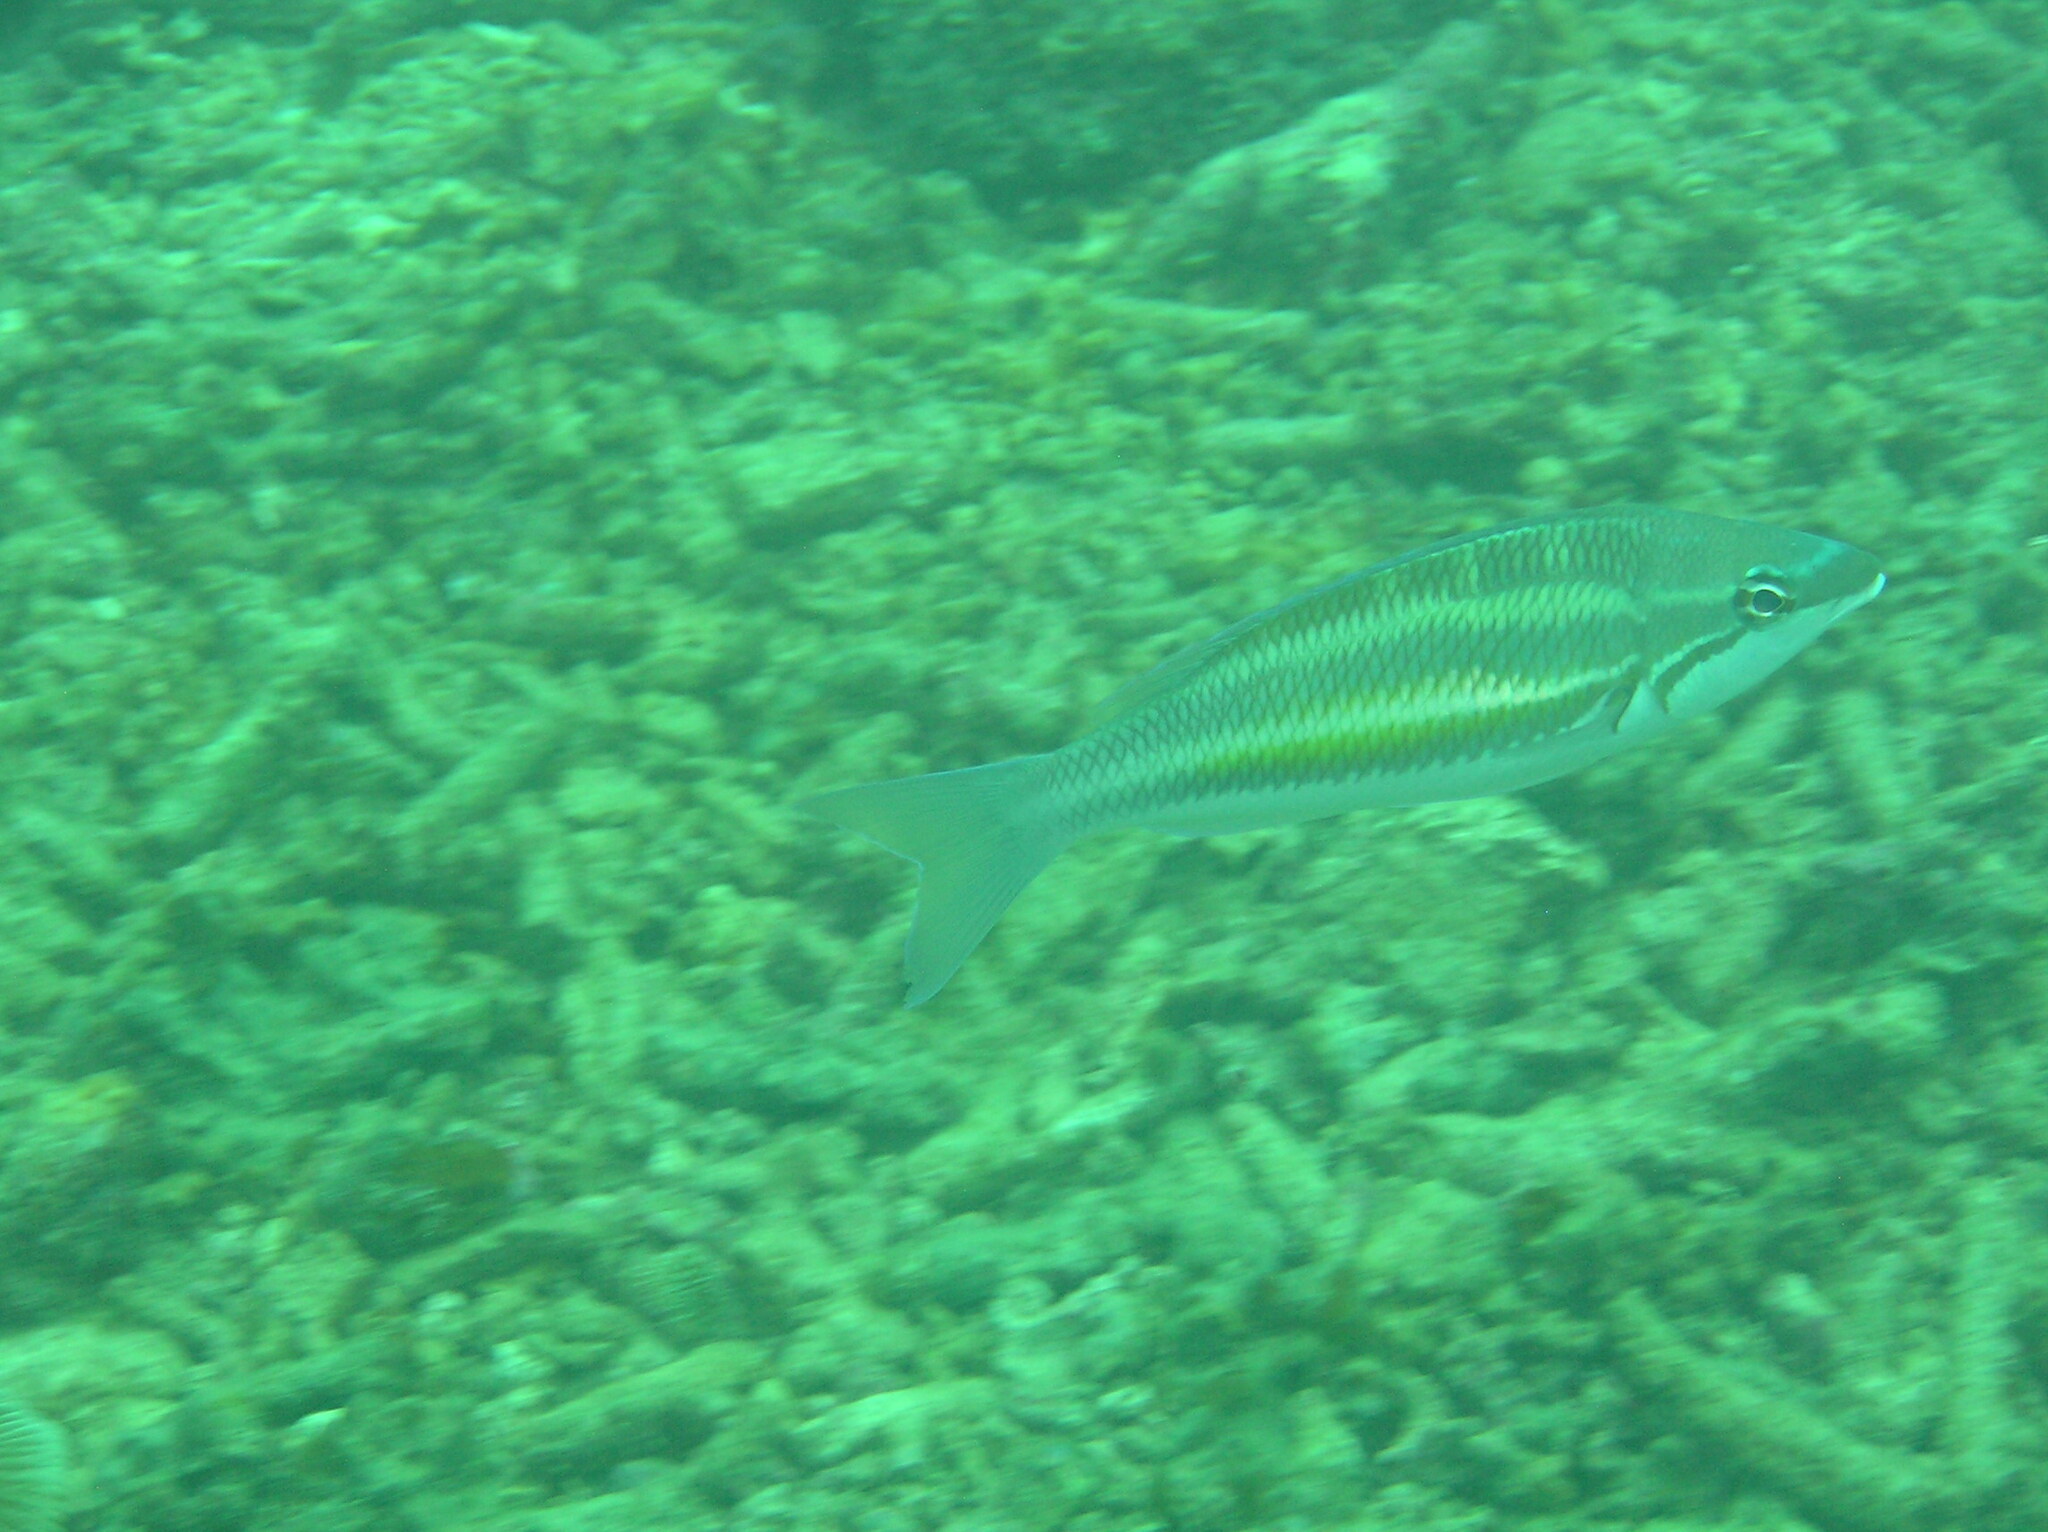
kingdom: Animalia
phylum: Chordata
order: Perciformes
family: Nemipteridae
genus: Pentapodus
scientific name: Pentapodus trivittatus
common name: Three-striped whiptail
